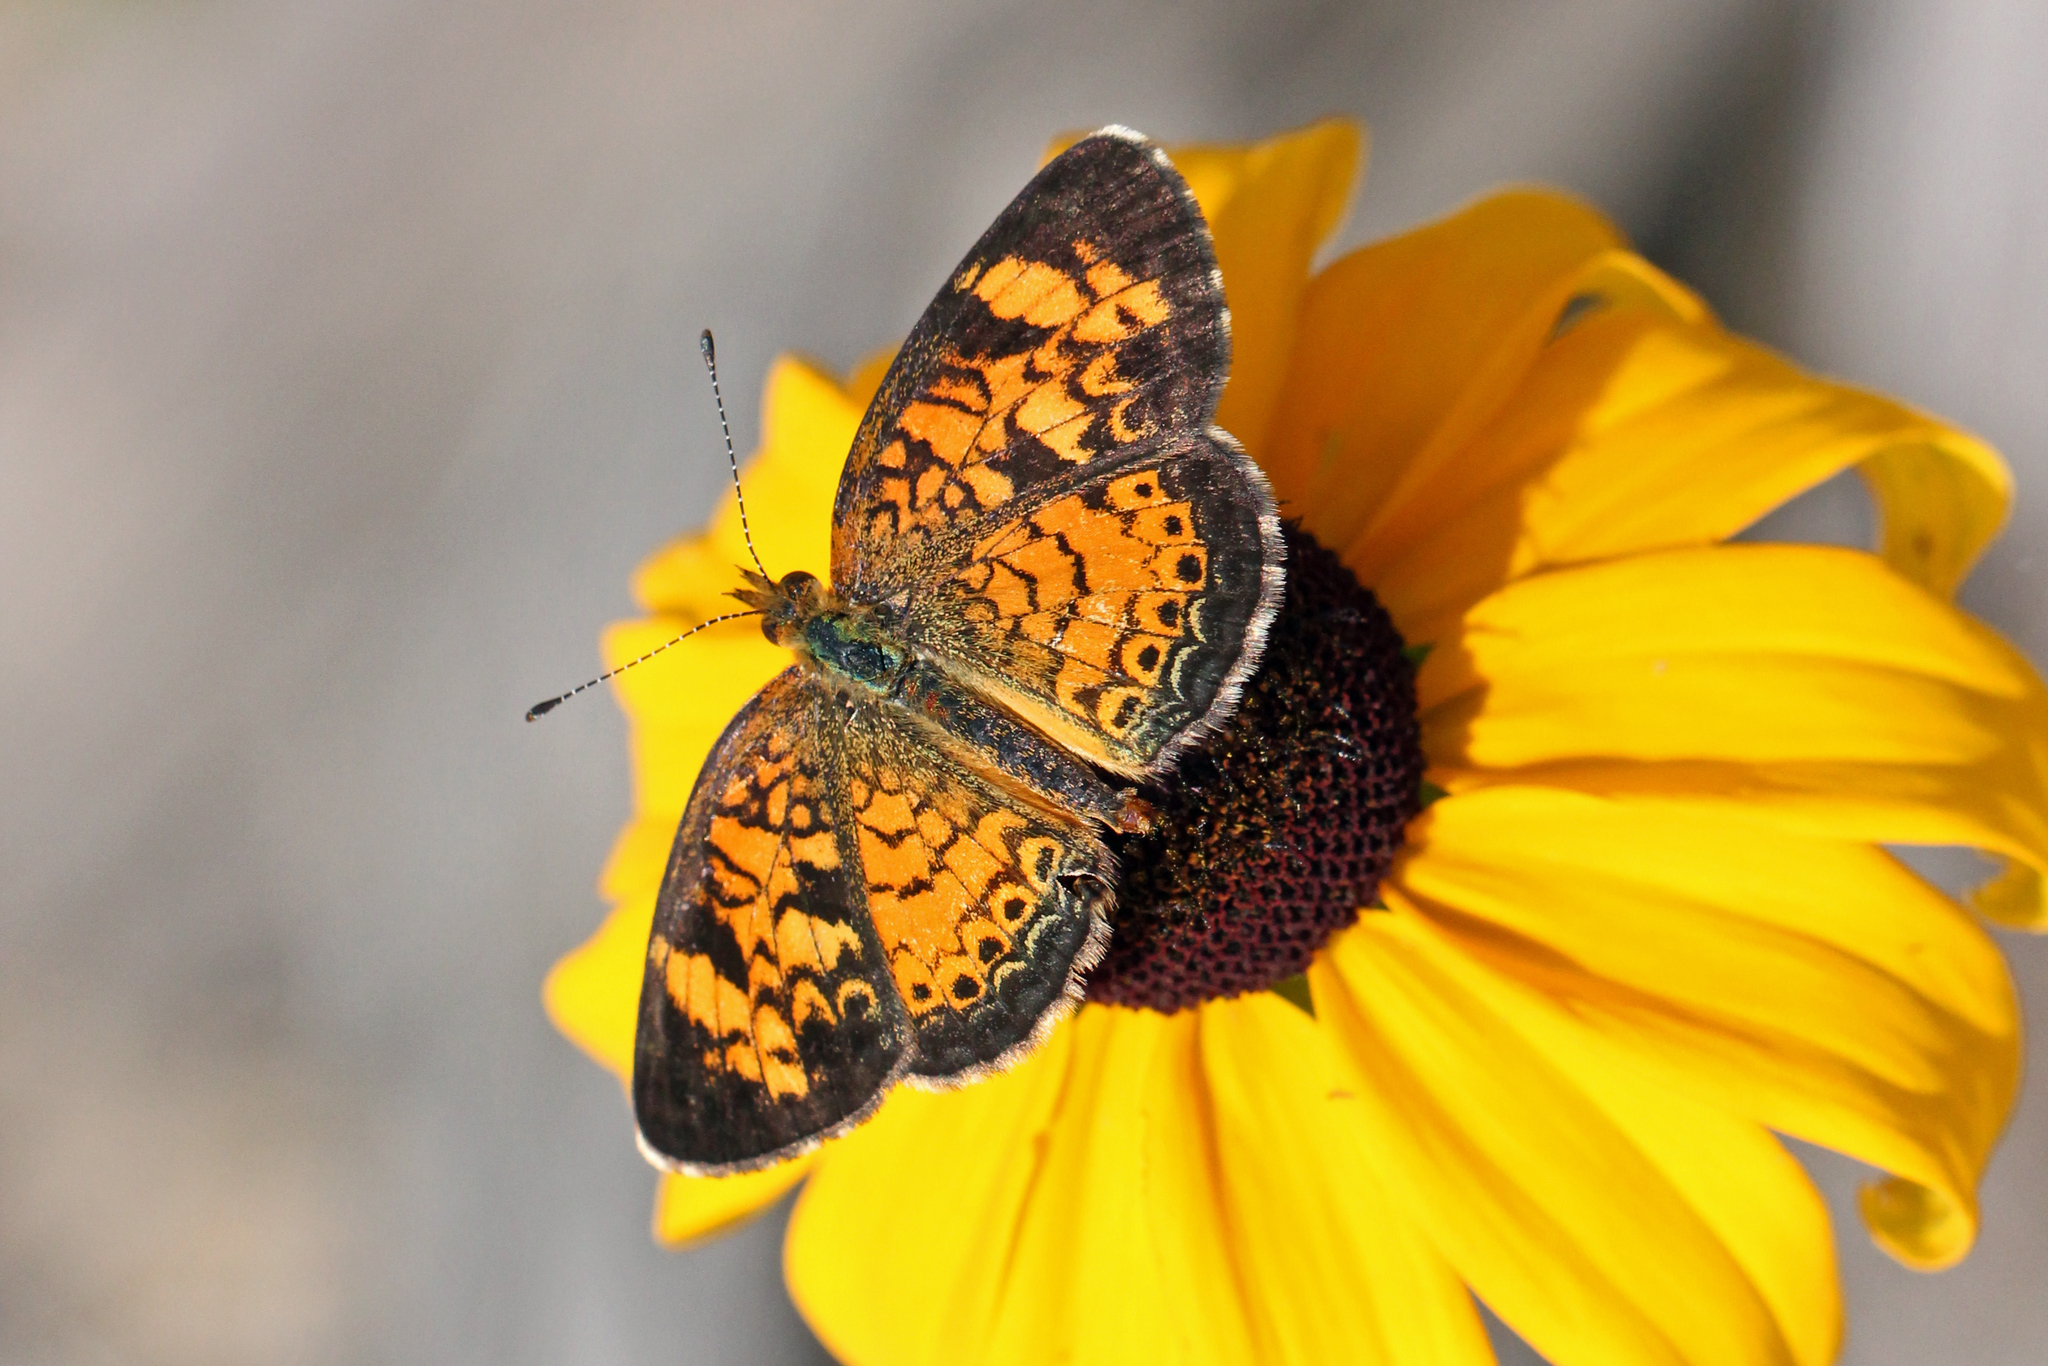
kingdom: Animalia
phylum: Arthropoda
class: Insecta
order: Lepidoptera
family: Nymphalidae
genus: Phyciodes
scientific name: Phyciodes tharos
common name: Pearl crescent
